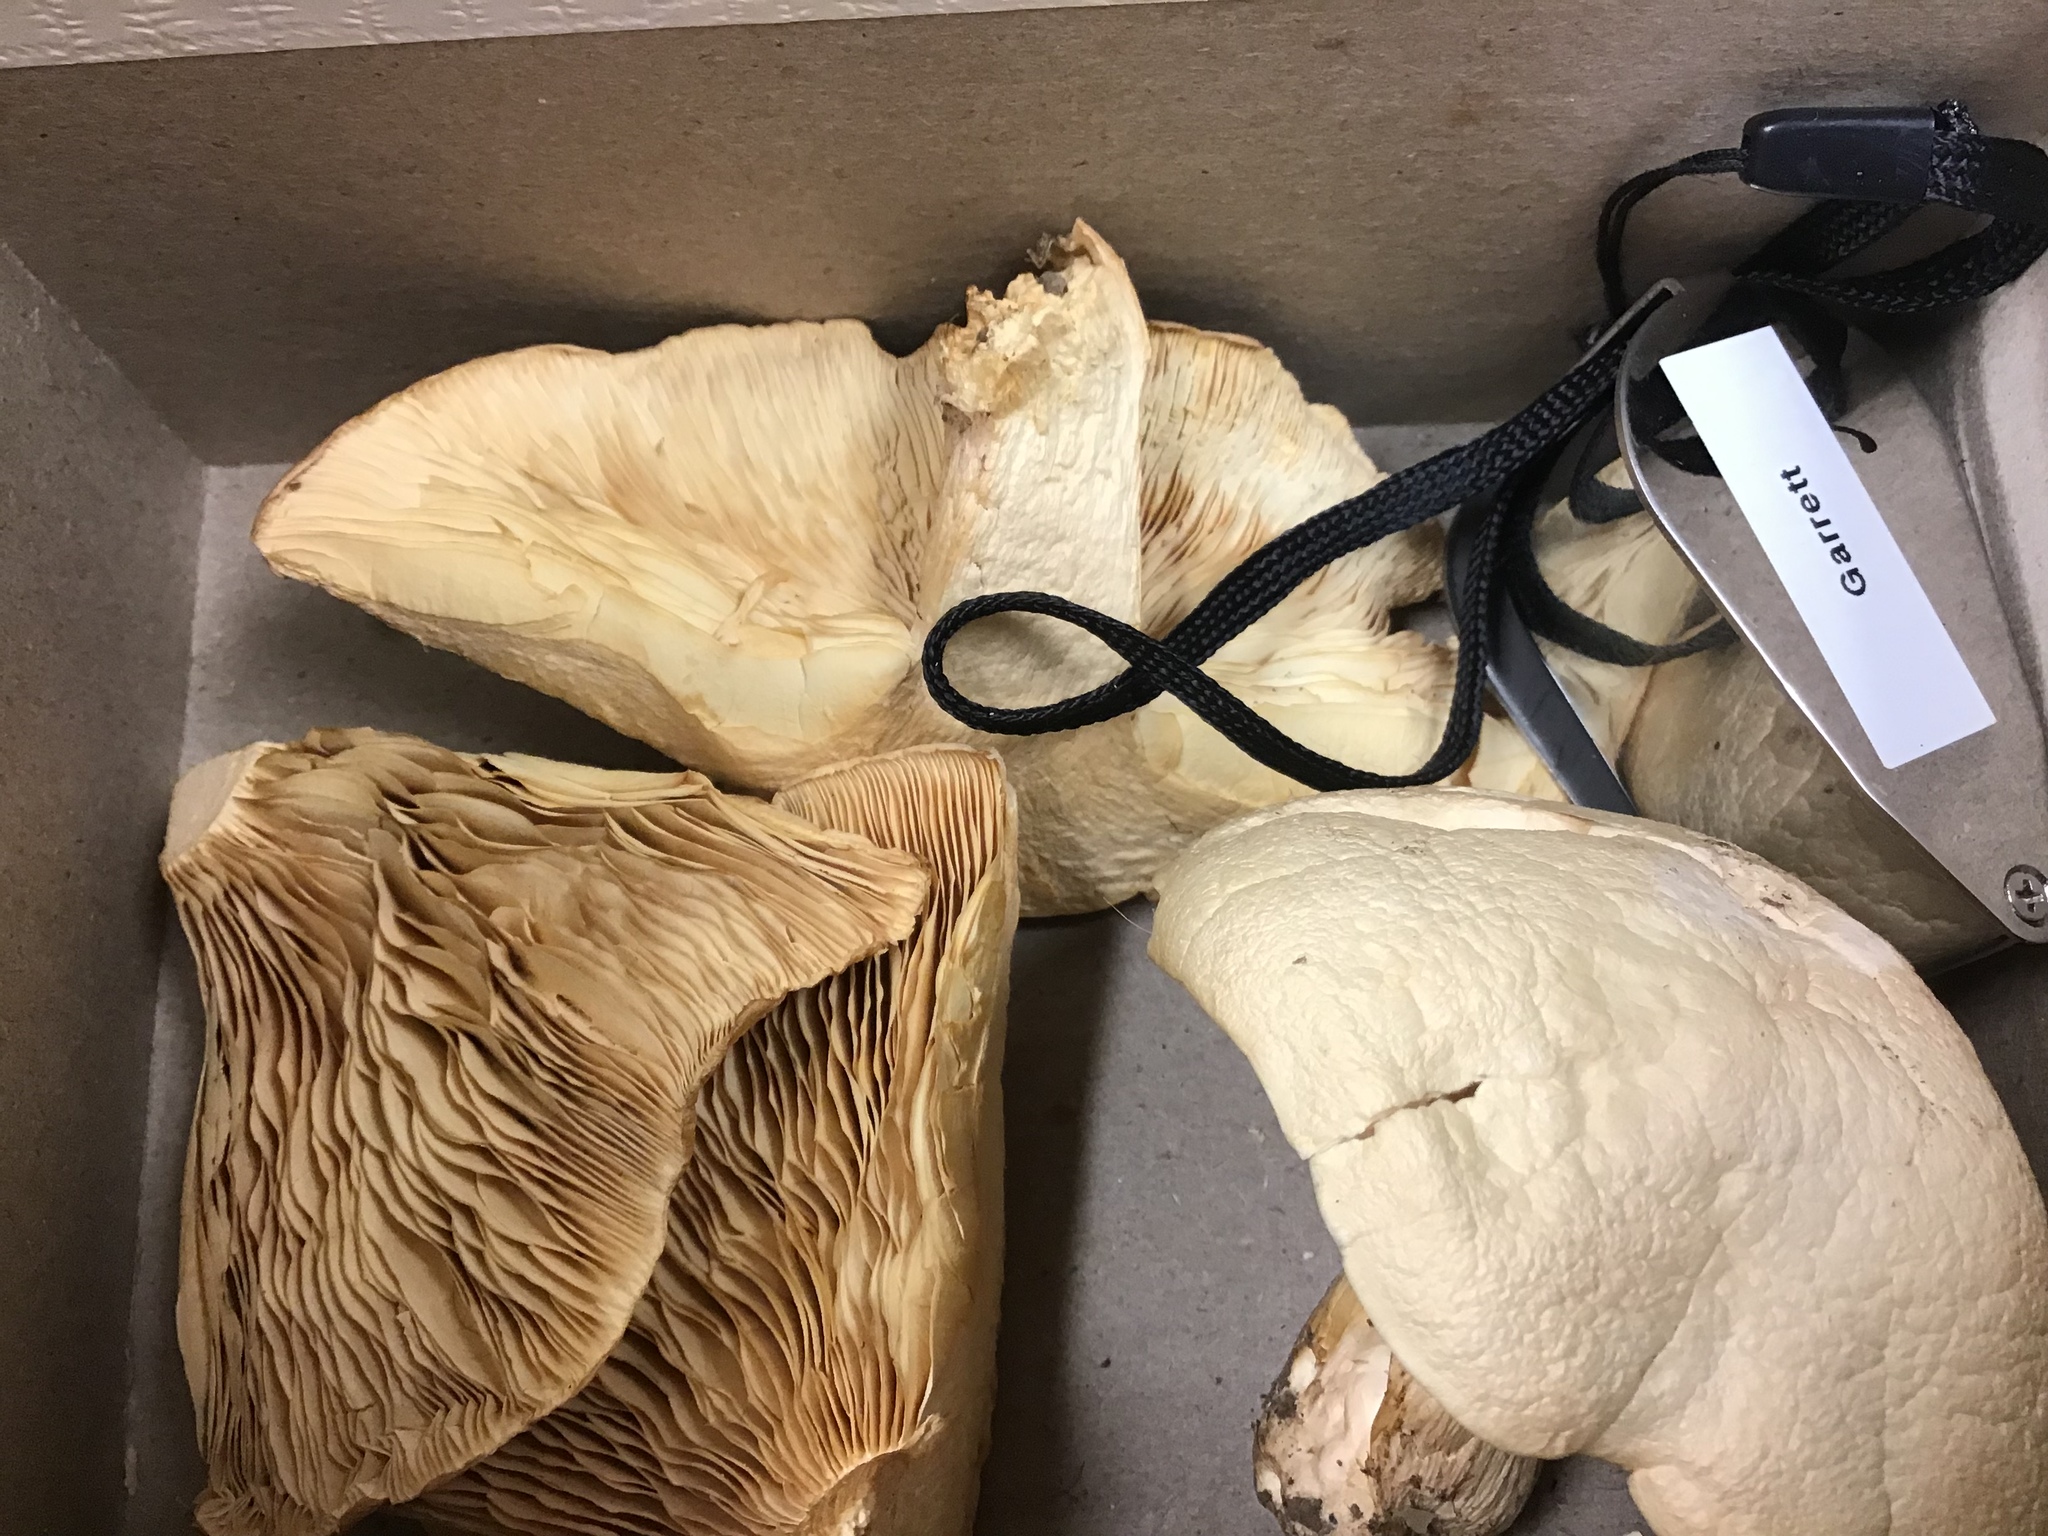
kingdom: Fungi
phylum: Basidiomycota
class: Agaricomycetes
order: Agaricales
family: Tricholomataceae
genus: Lepista
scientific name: Lepista glaucocana
